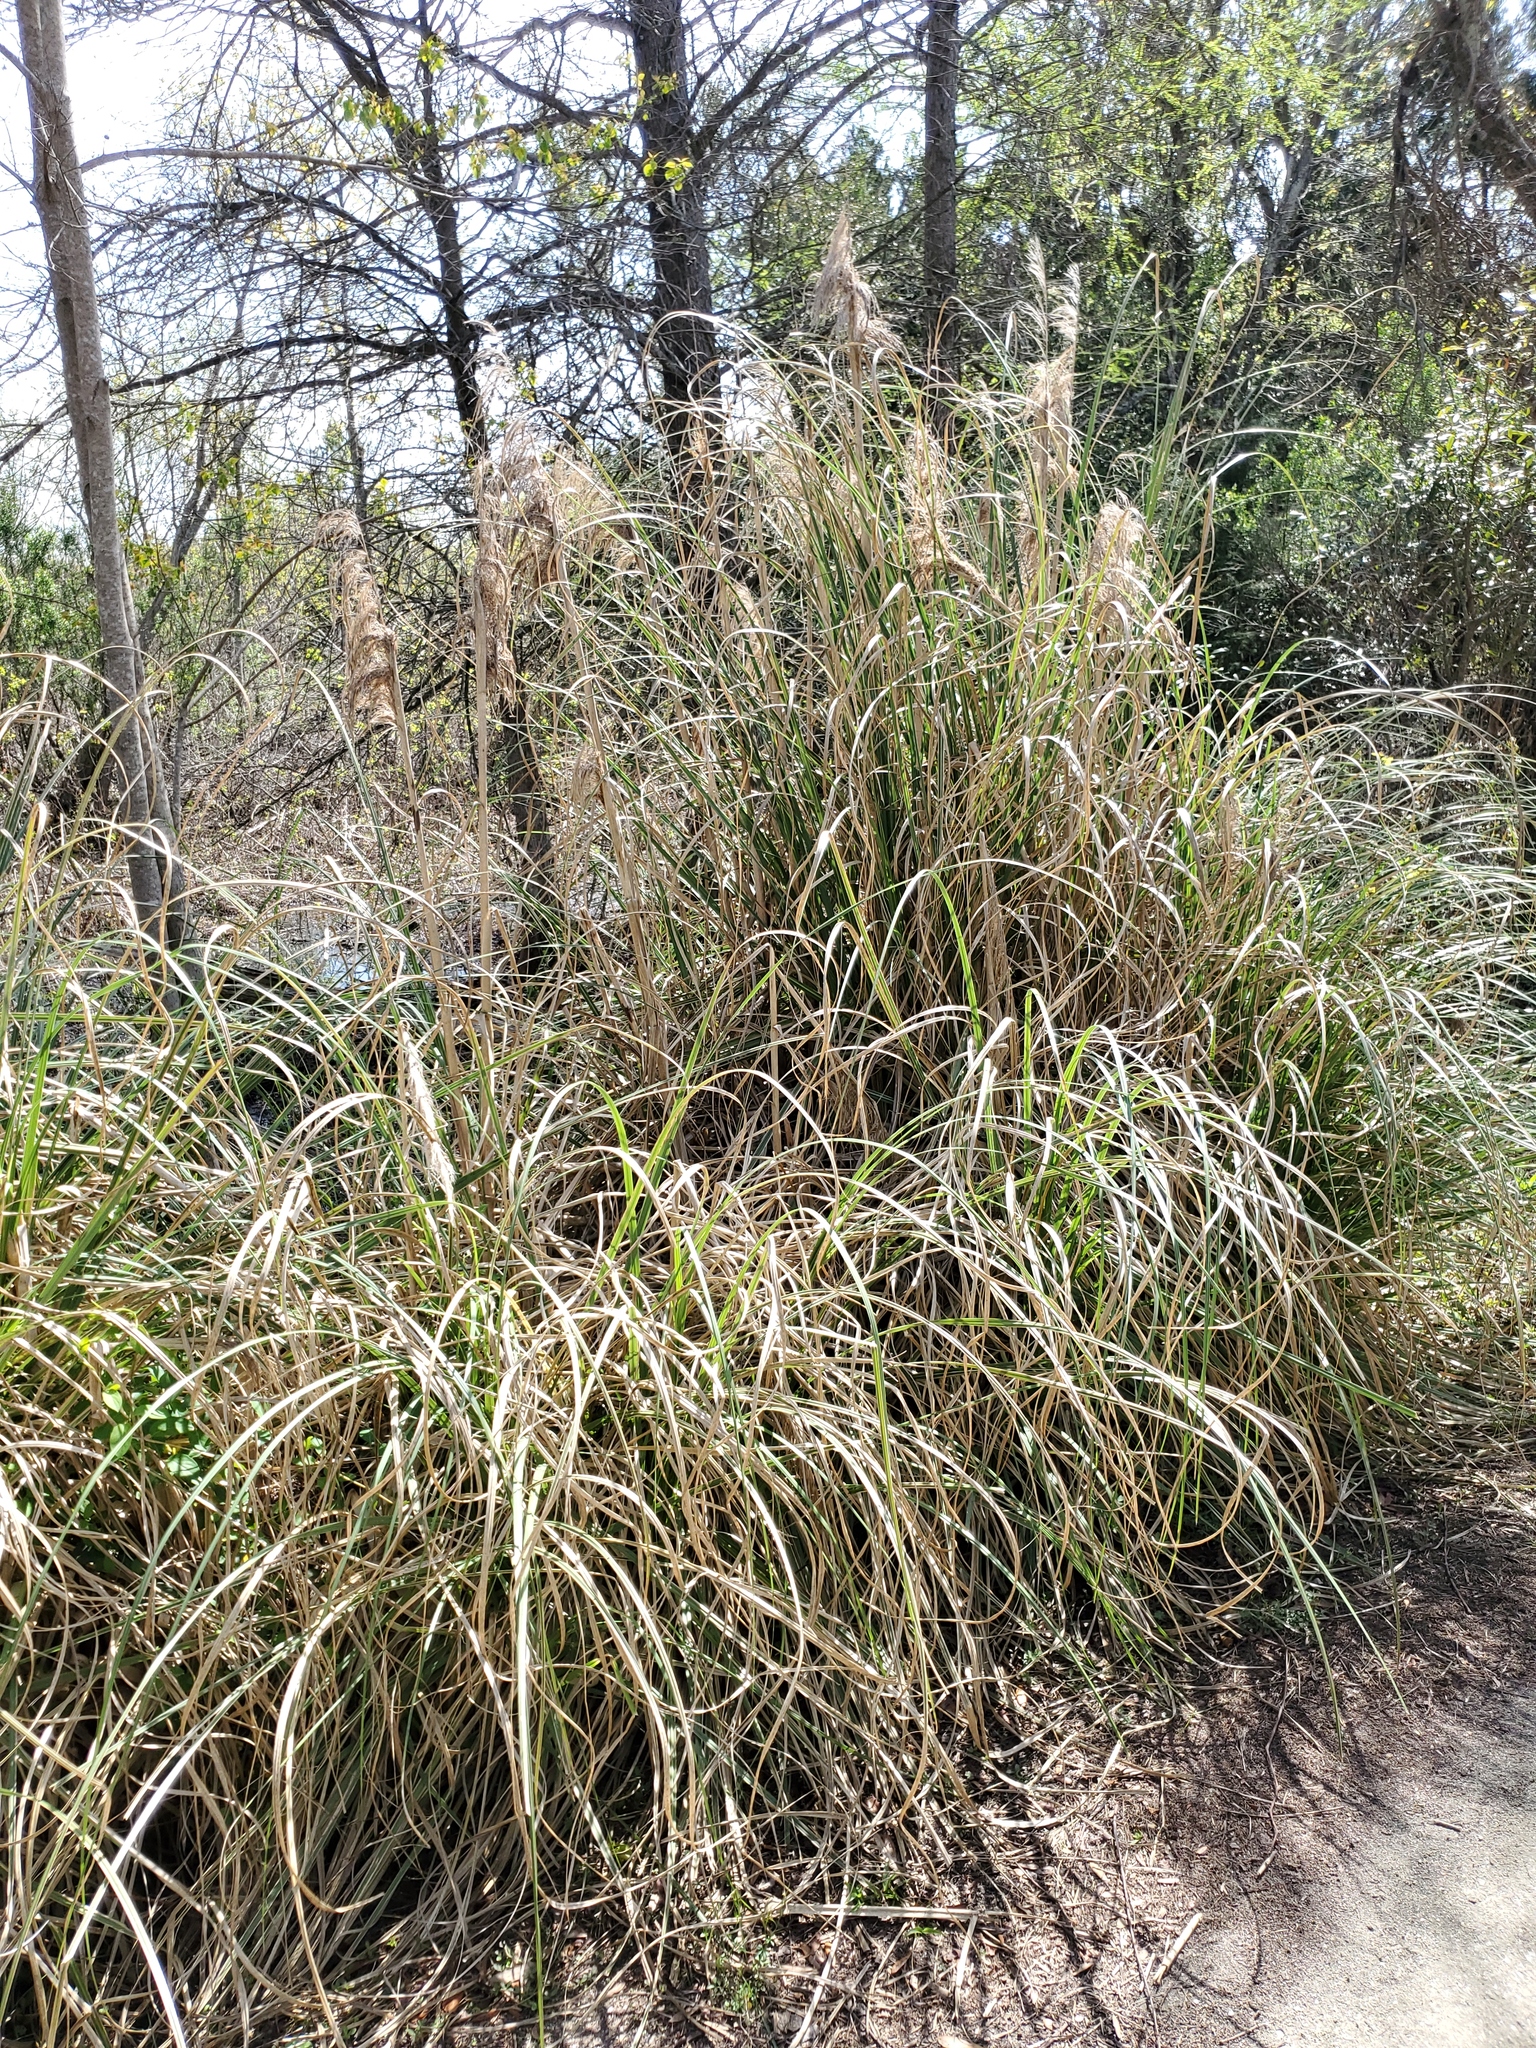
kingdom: Plantae
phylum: Tracheophyta
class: Liliopsida
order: Poales
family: Poaceae
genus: Cortaderia
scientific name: Cortaderia selloana
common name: Uruguayan pampas grass
